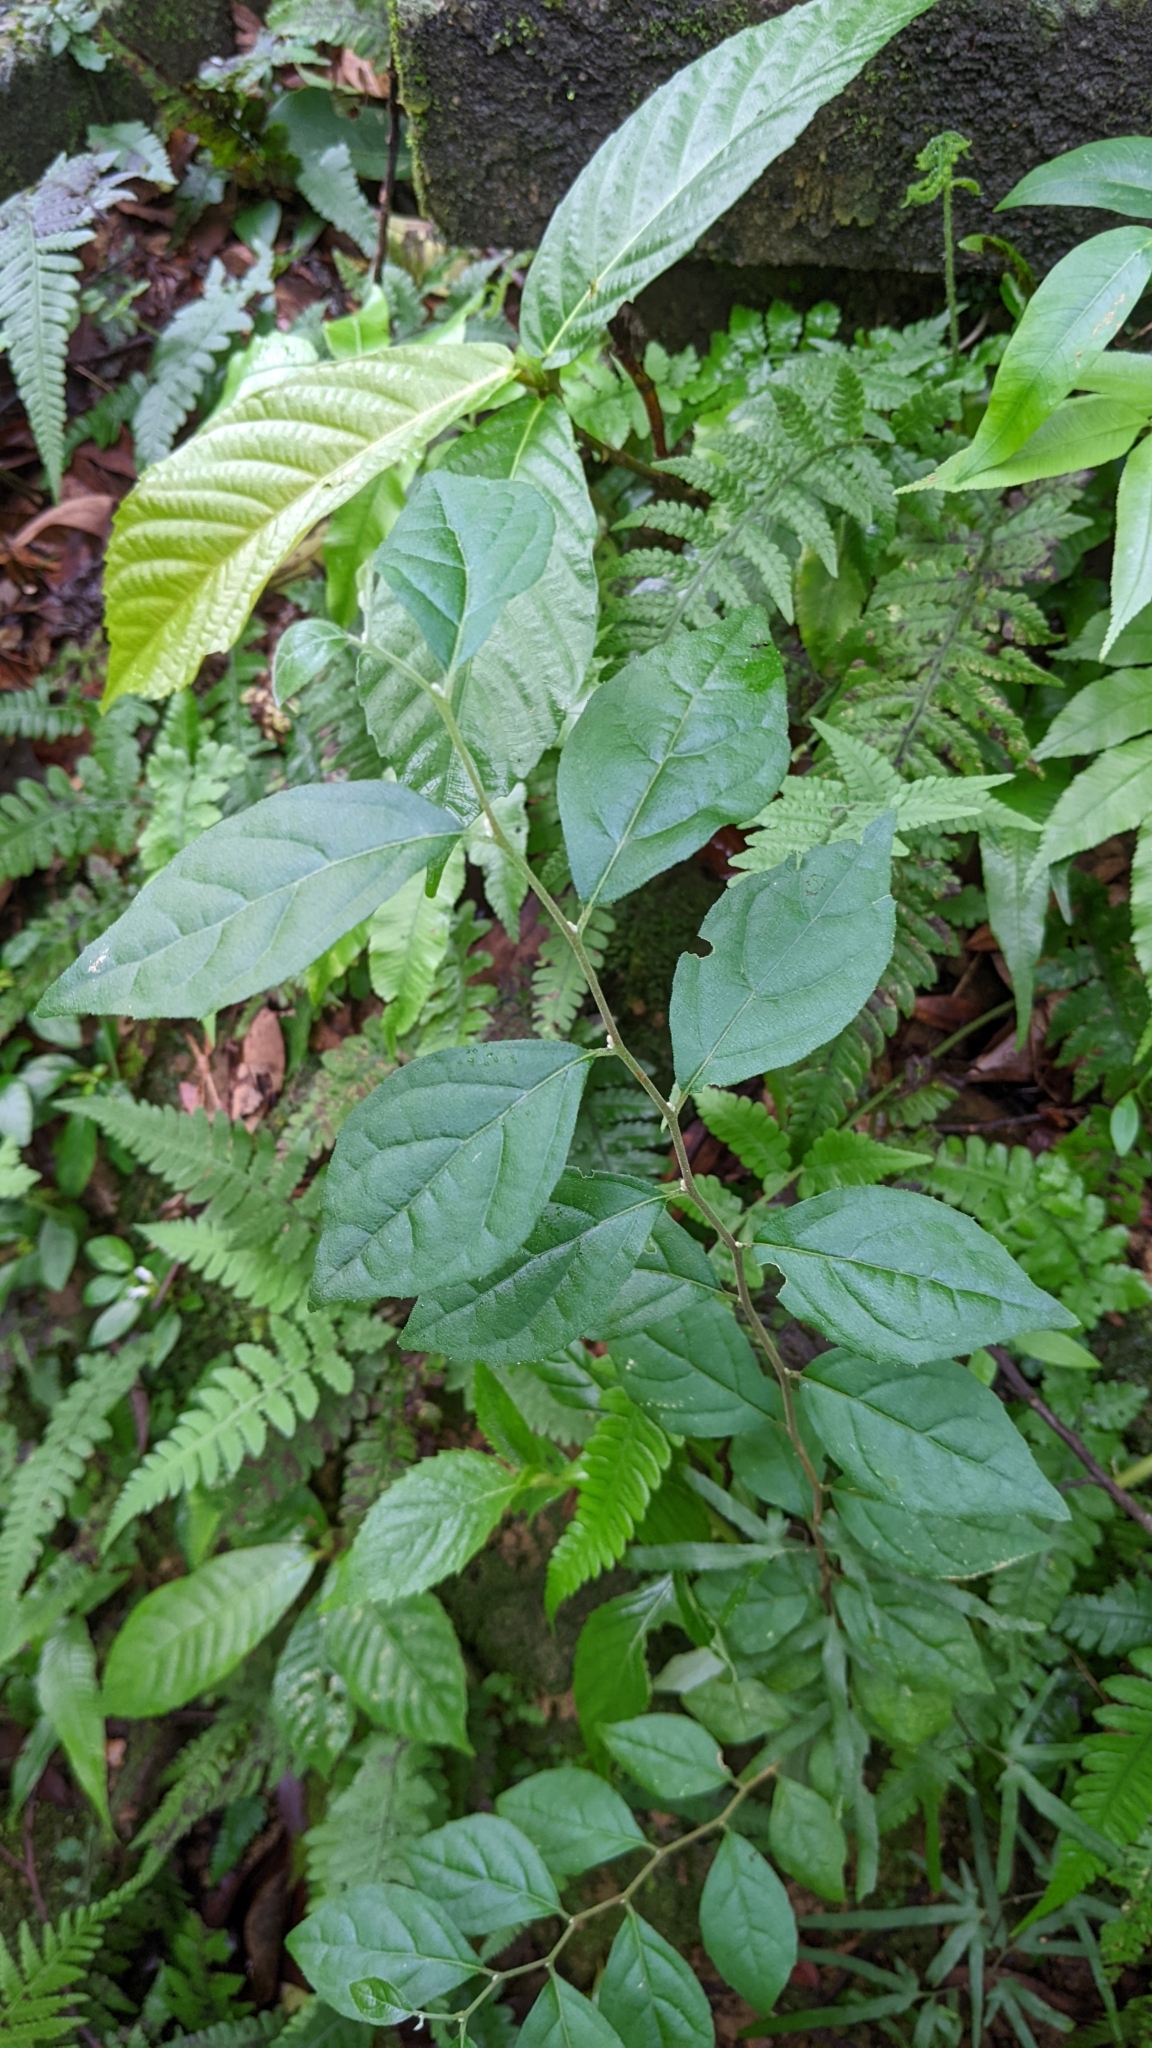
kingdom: Plantae
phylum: Tracheophyta
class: Magnoliopsida
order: Ericales
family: Styracaceae
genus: Styrax
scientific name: Styrax formosanus
